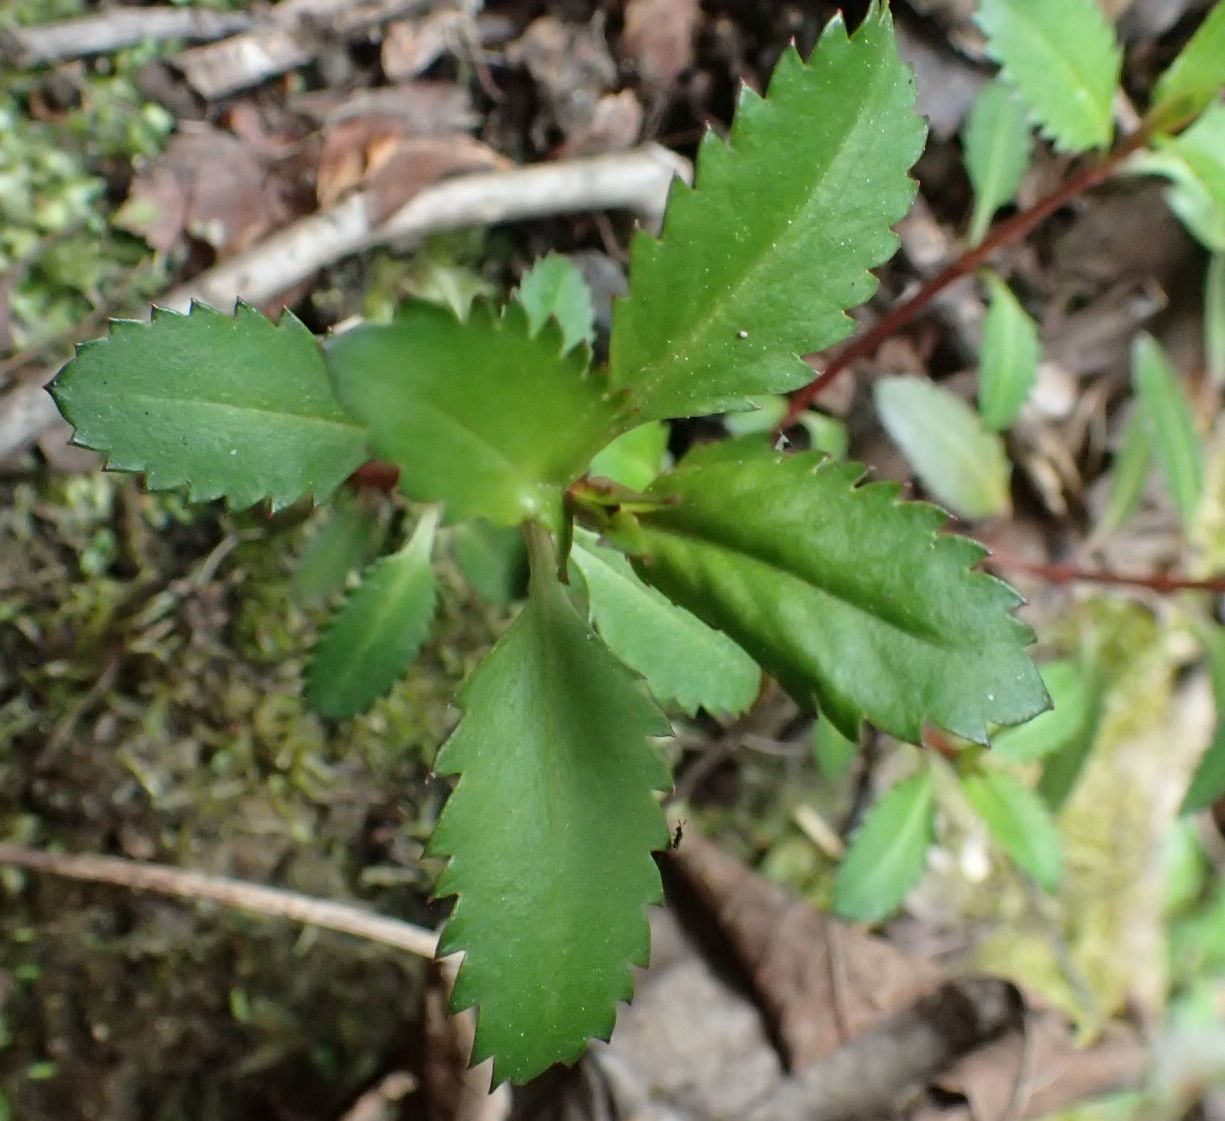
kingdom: Plantae
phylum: Tracheophyta
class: Magnoliopsida
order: Saxifragales
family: Haloragaceae
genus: Haloragis
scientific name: Haloragis erecta
